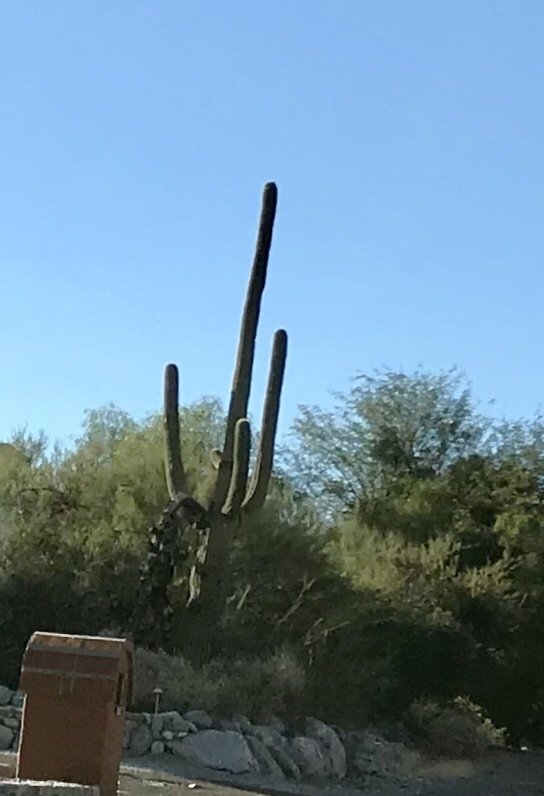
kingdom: Plantae
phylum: Tracheophyta
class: Magnoliopsida
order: Caryophyllales
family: Cactaceae
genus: Carnegiea
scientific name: Carnegiea gigantea
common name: Saguaro
